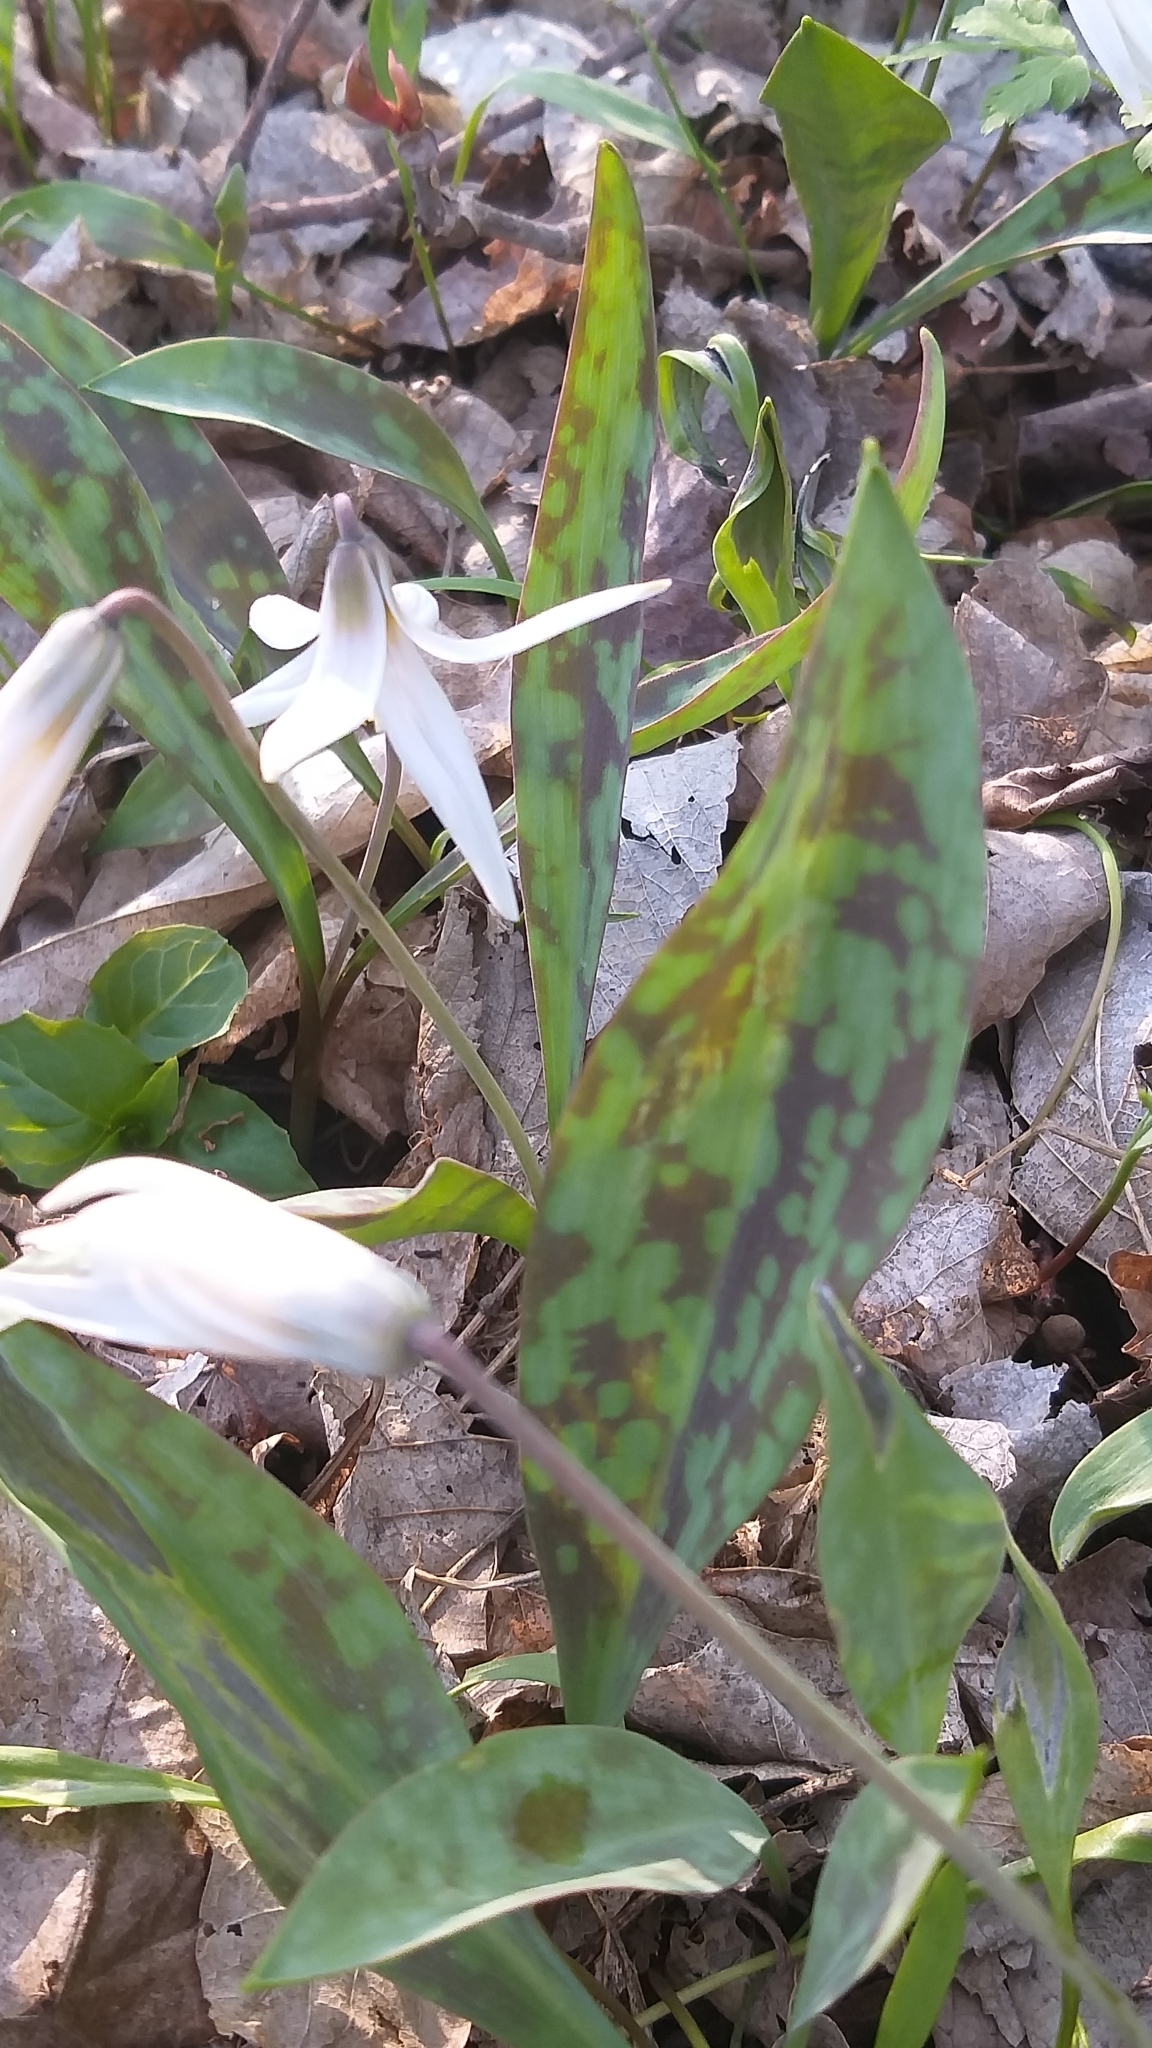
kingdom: Plantae
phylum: Tracheophyta
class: Liliopsida
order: Liliales
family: Liliaceae
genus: Erythronium
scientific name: Erythronium albidum
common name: White trout-lily
